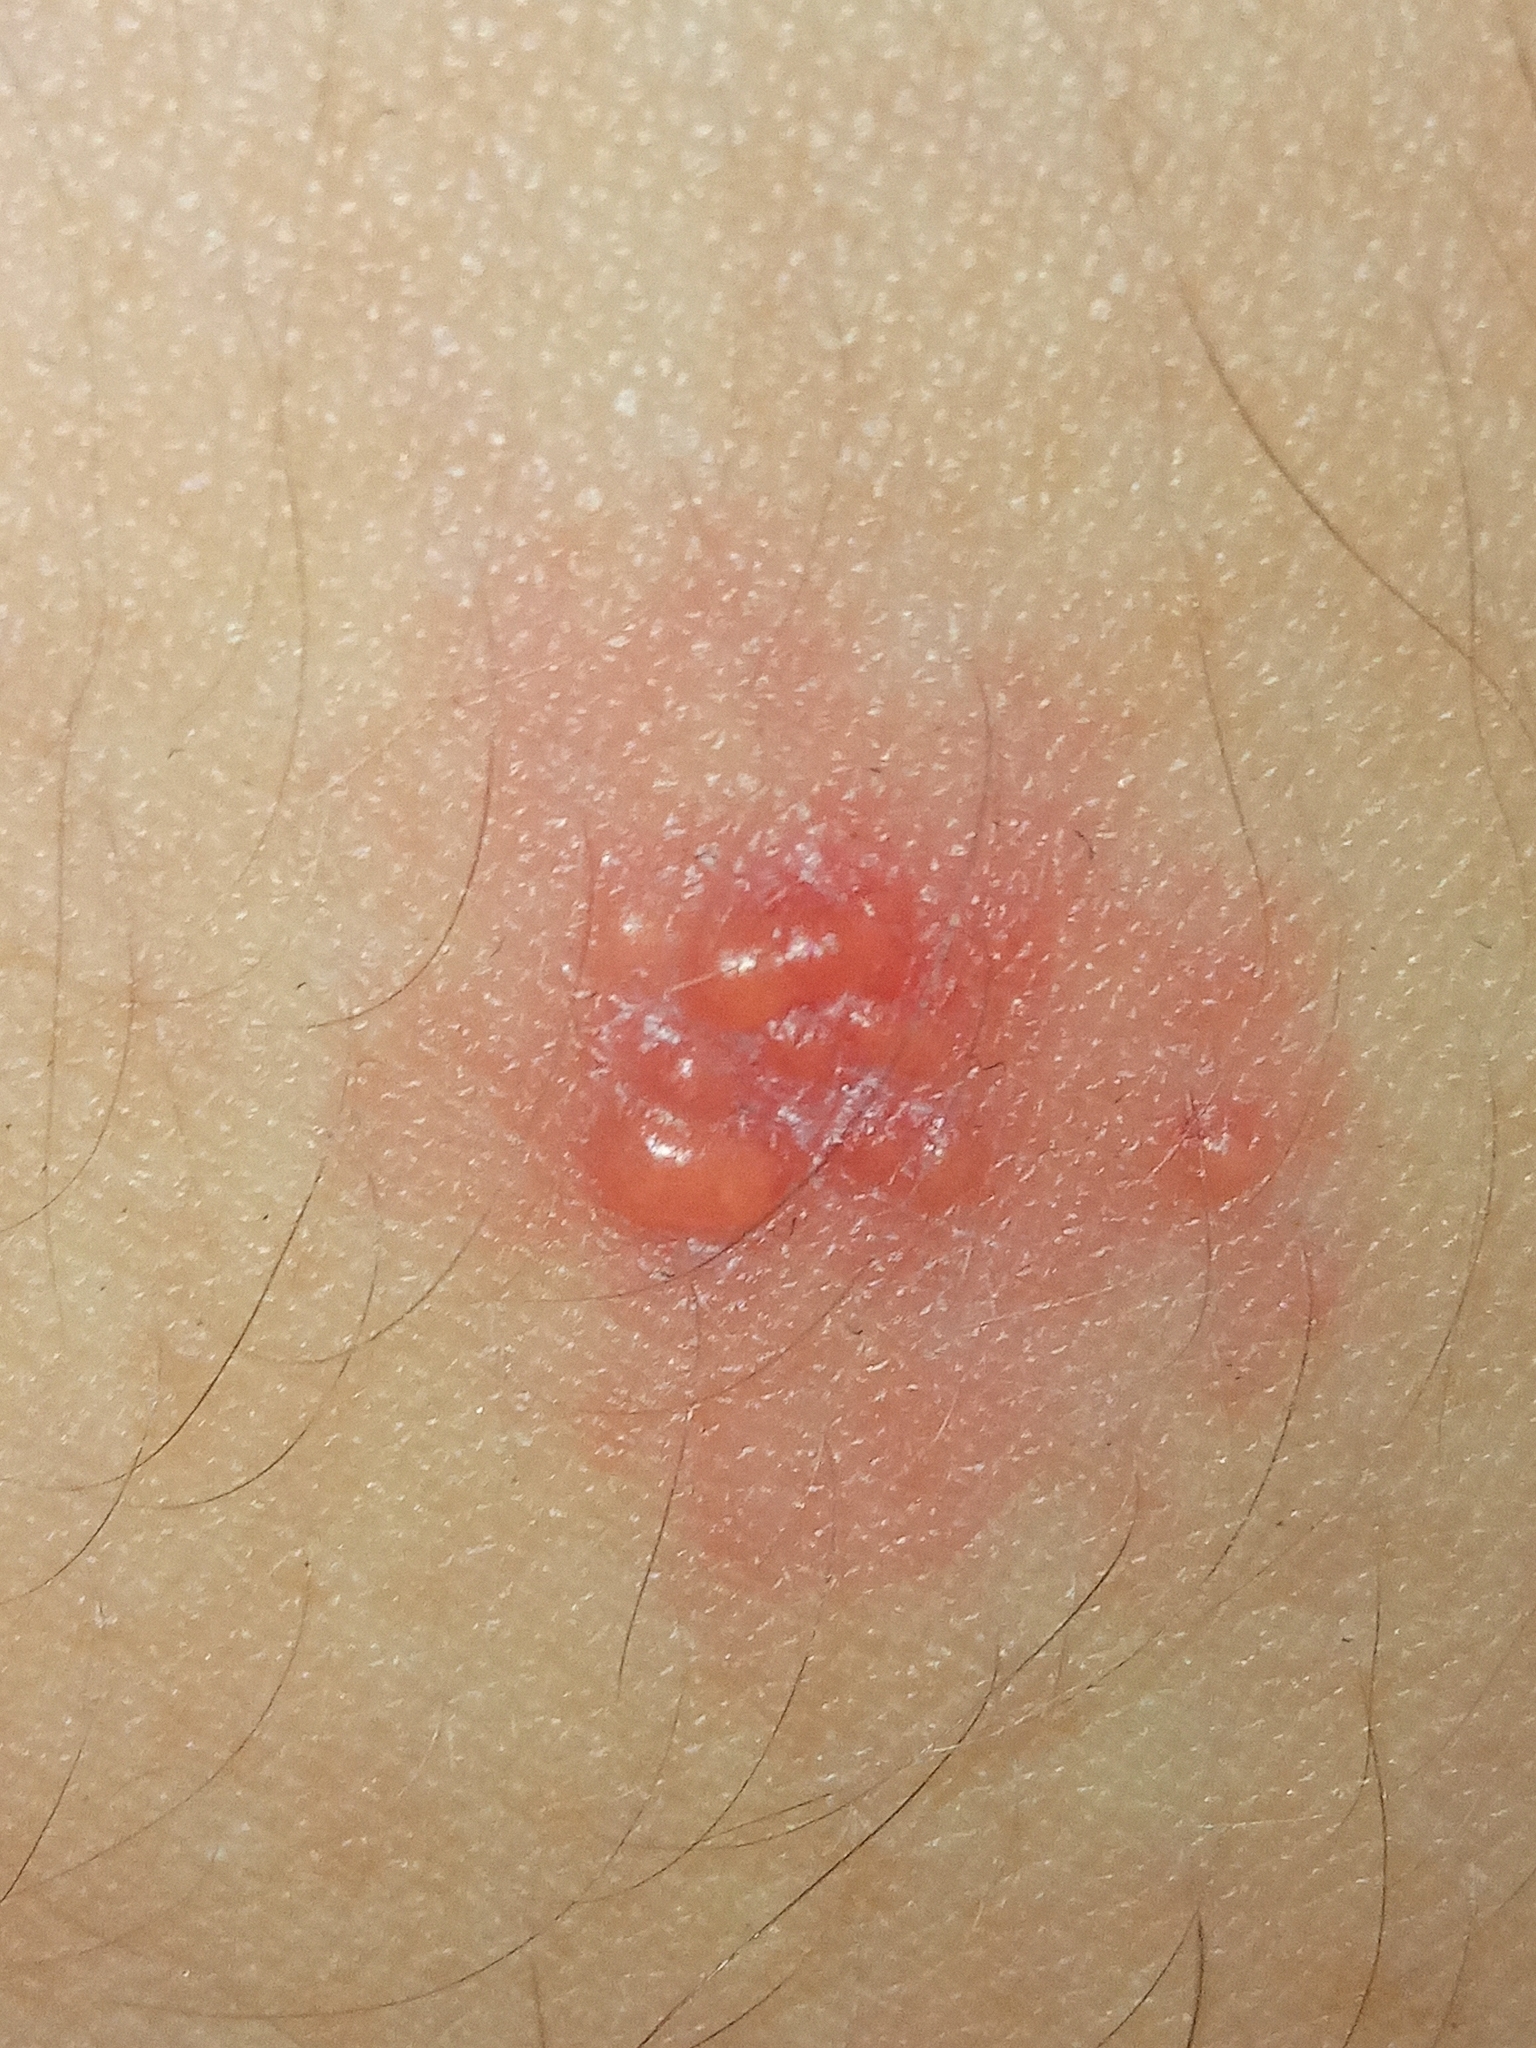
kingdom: Viruses
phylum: Peploviricota
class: Herviviricetes
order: Herpesvirales
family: Herpesviridae
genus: Varicellovirus
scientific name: Varicellovirus
